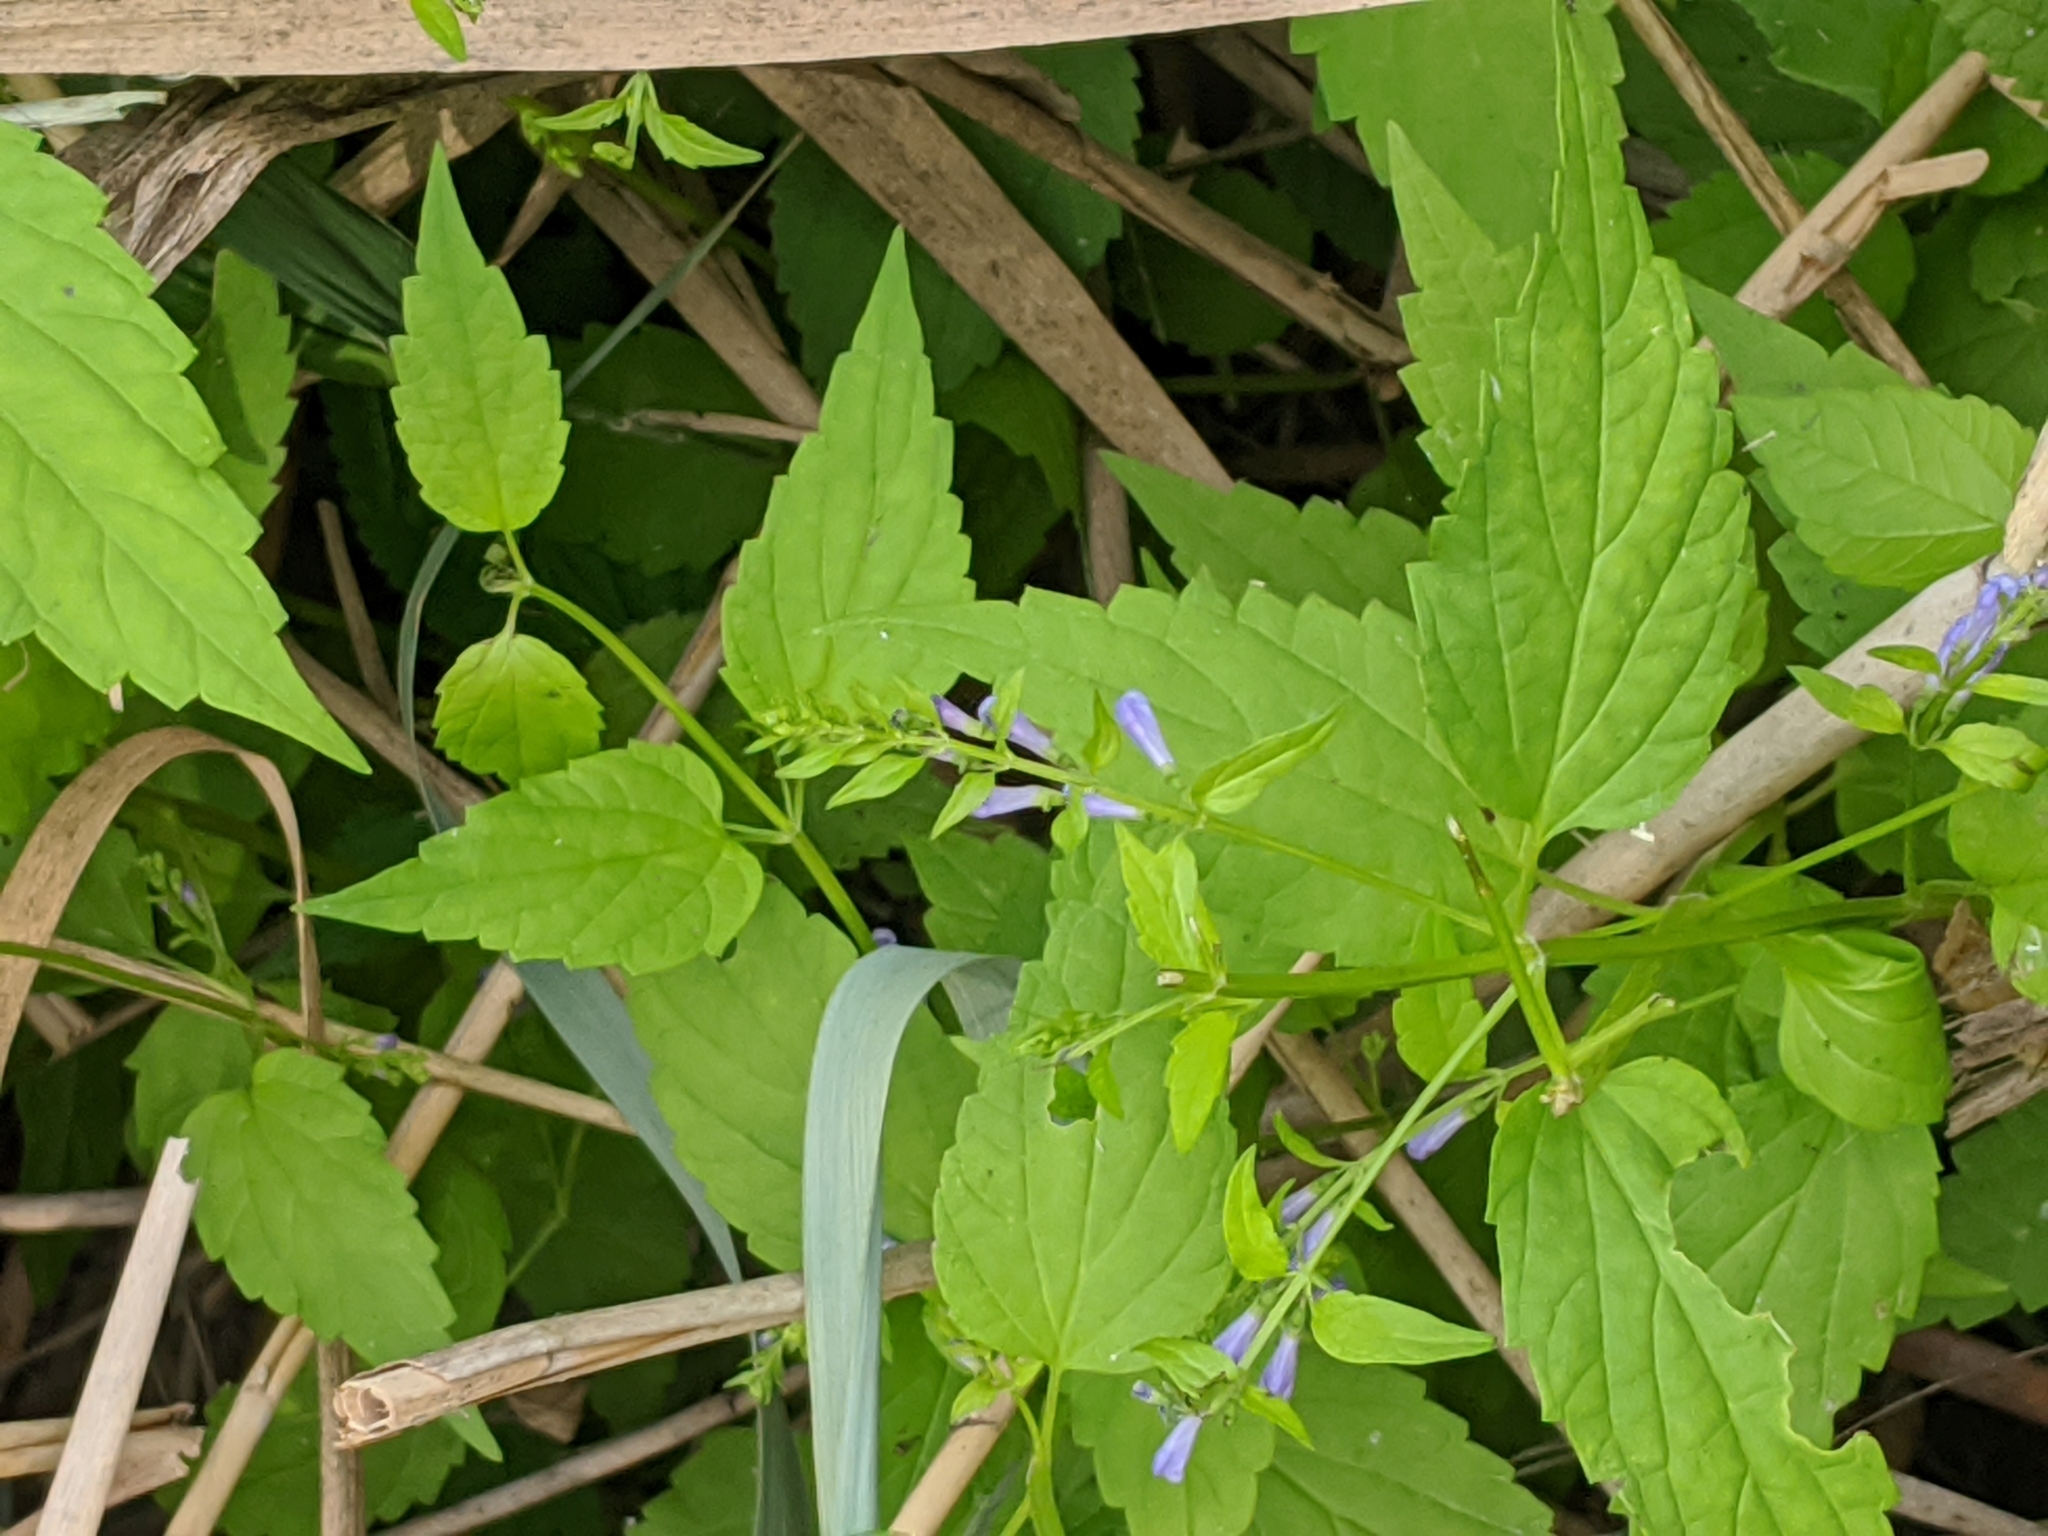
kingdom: Plantae
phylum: Tracheophyta
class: Magnoliopsida
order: Lamiales
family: Lamiaceae
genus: Scutellaria
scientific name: Scutellaria lateriflora
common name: Blue skullcap
